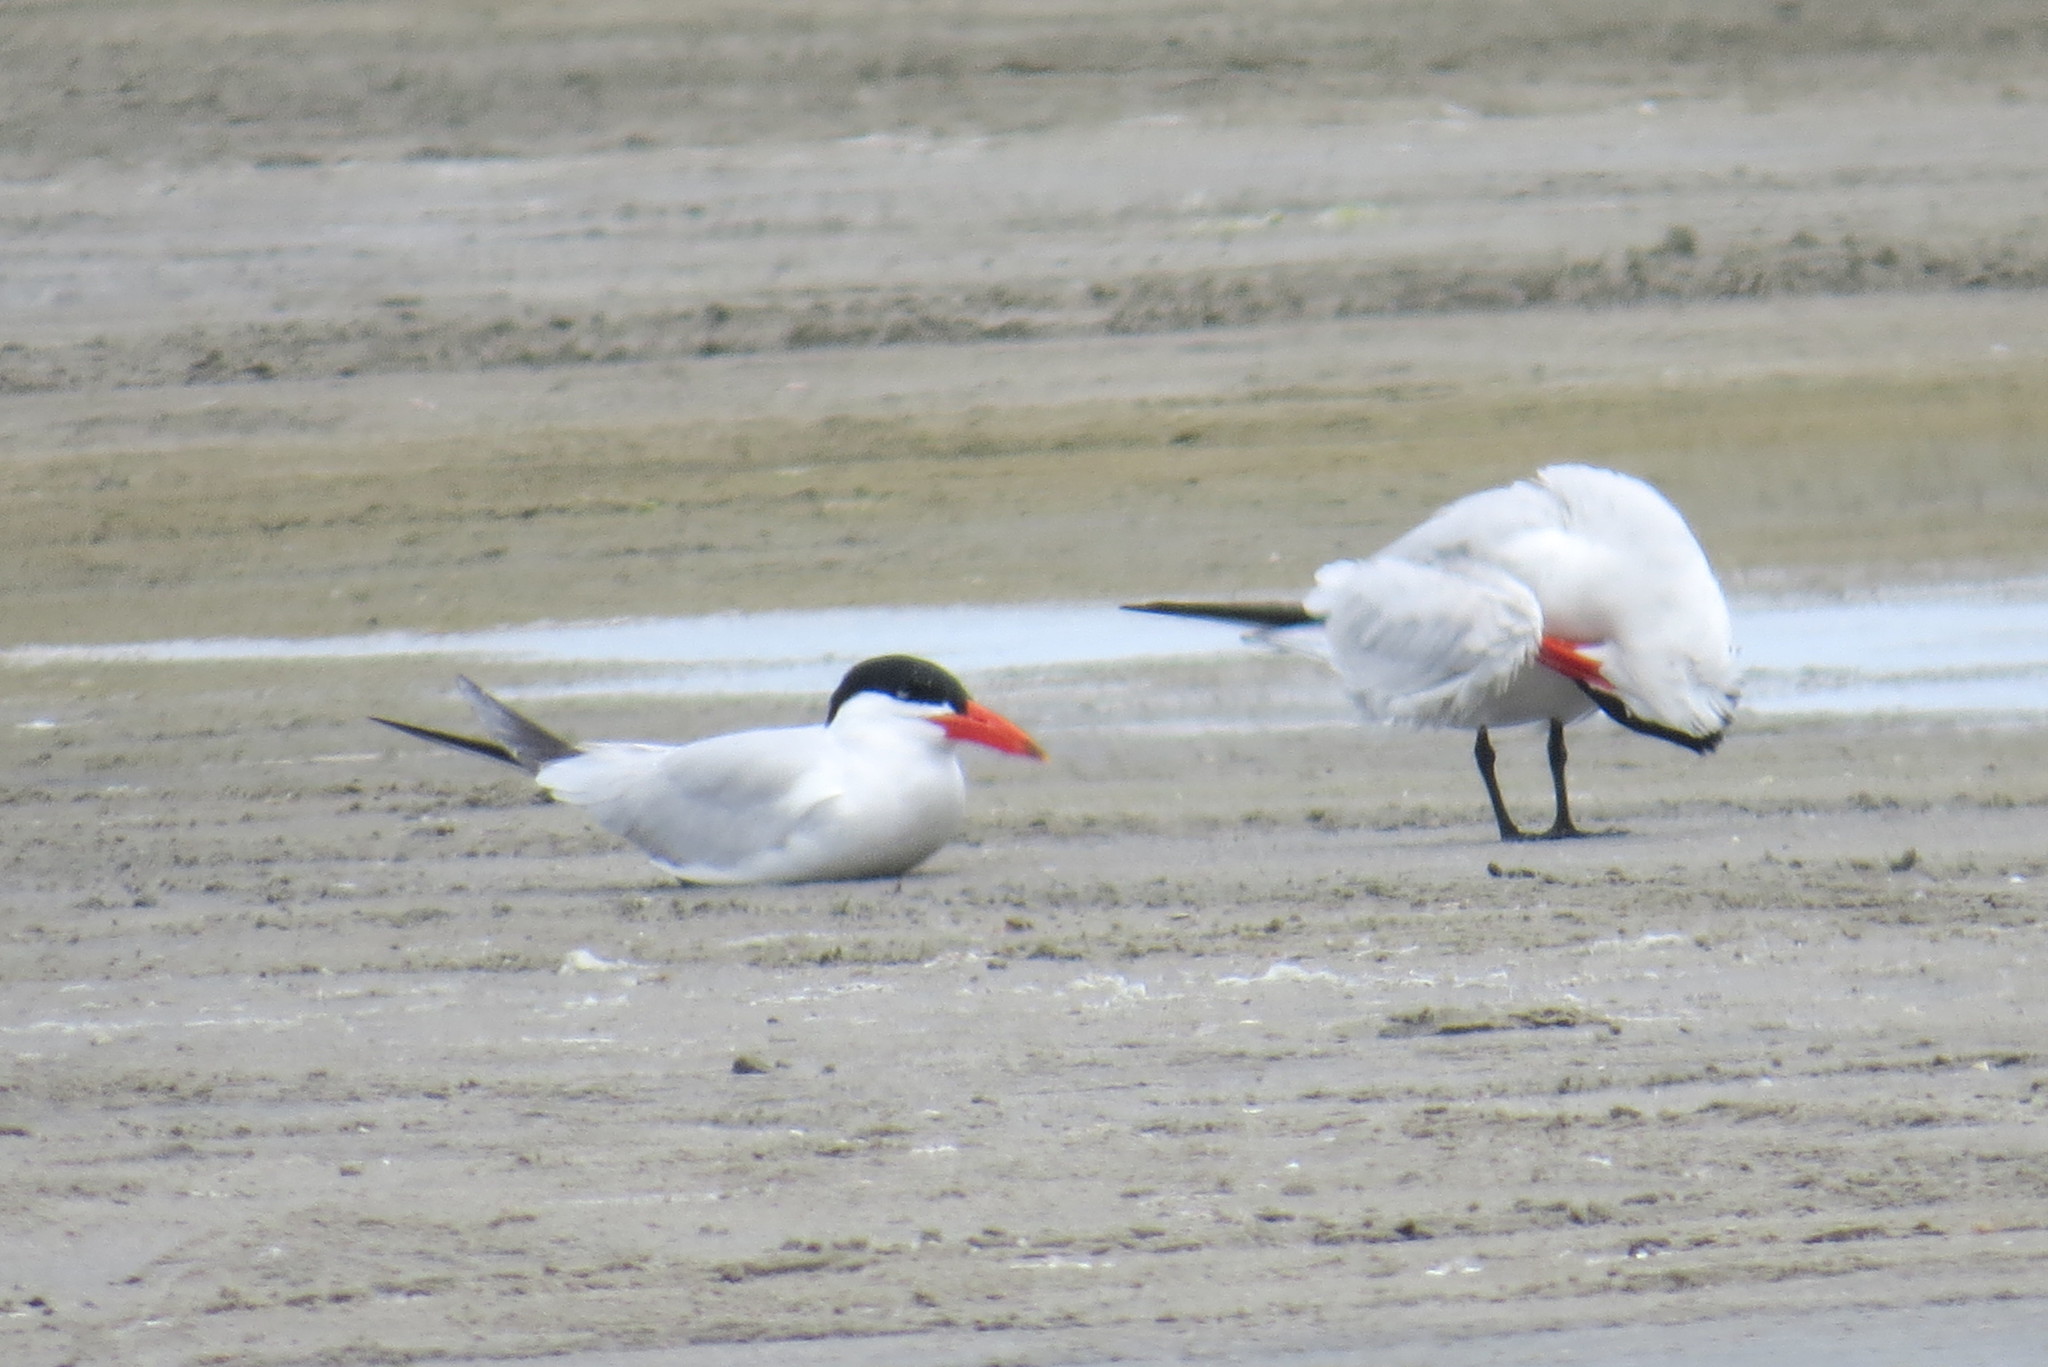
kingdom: Animalia
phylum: Chordata
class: Aves
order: Charadriiformes
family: Laridae
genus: Hydroprogne
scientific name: Hydroprogne caspia
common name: Caspian tern
